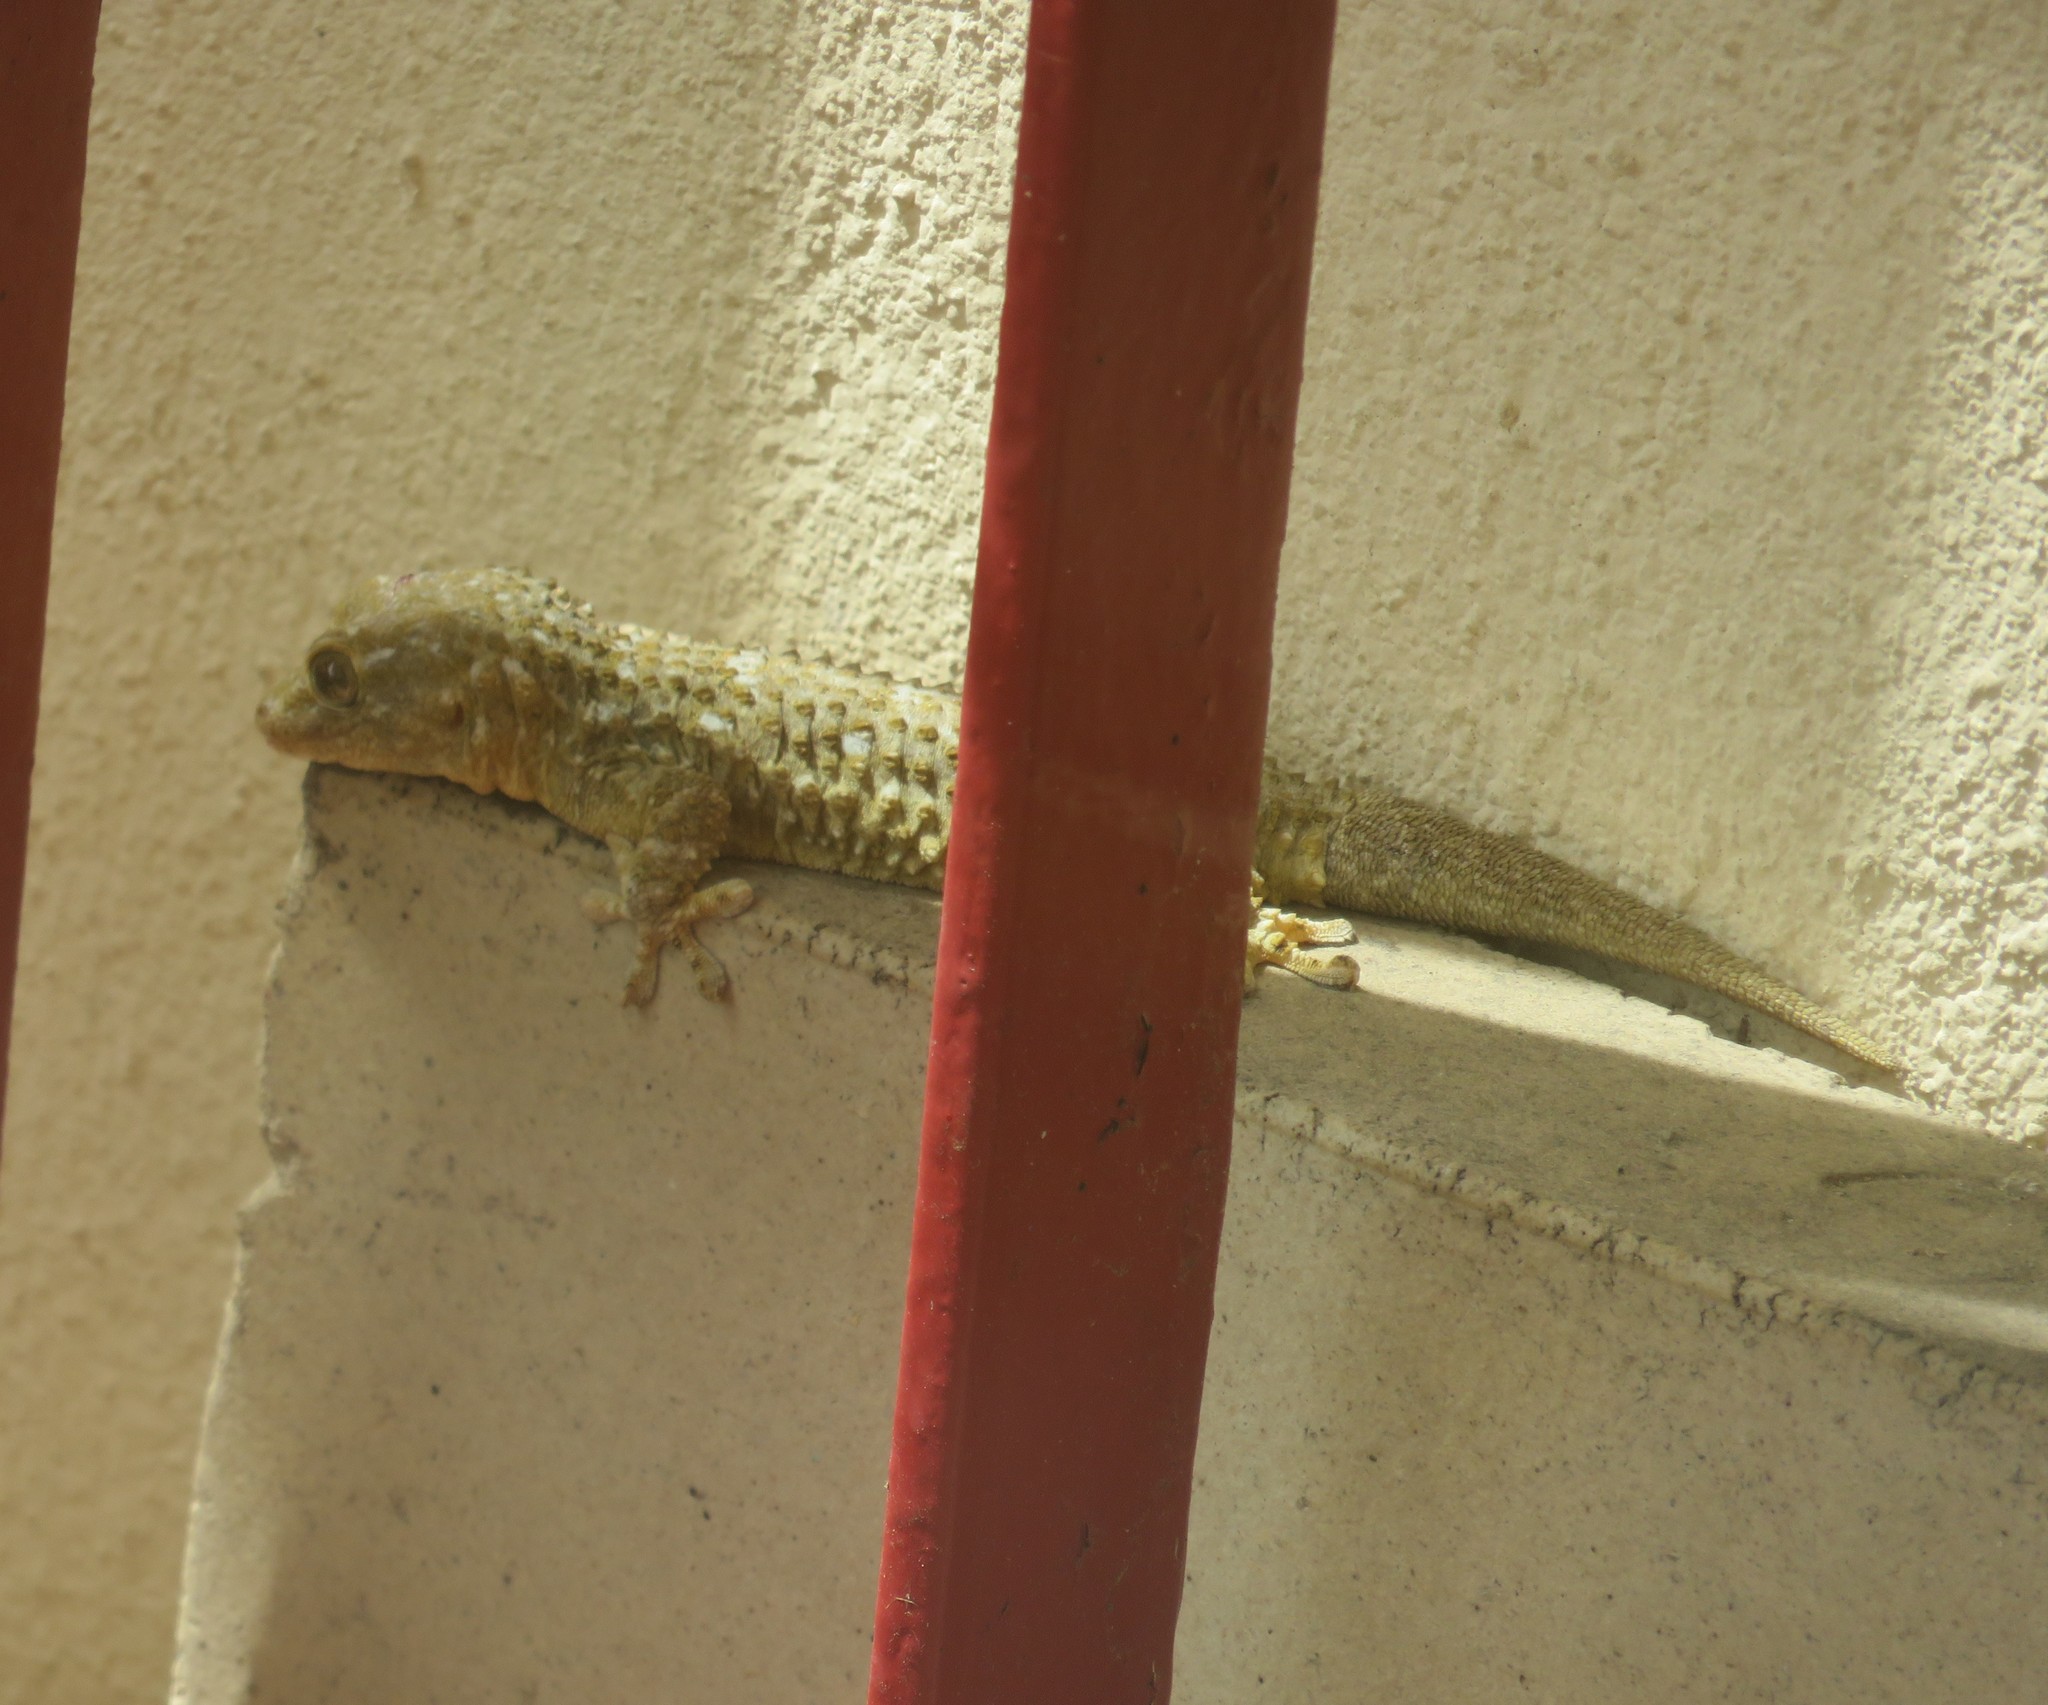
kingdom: Animalia
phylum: Chordata
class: Squamata
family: Phyllodactylidae
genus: Tarentola
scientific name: Tarentola mauritanica
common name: Moorish gecko
